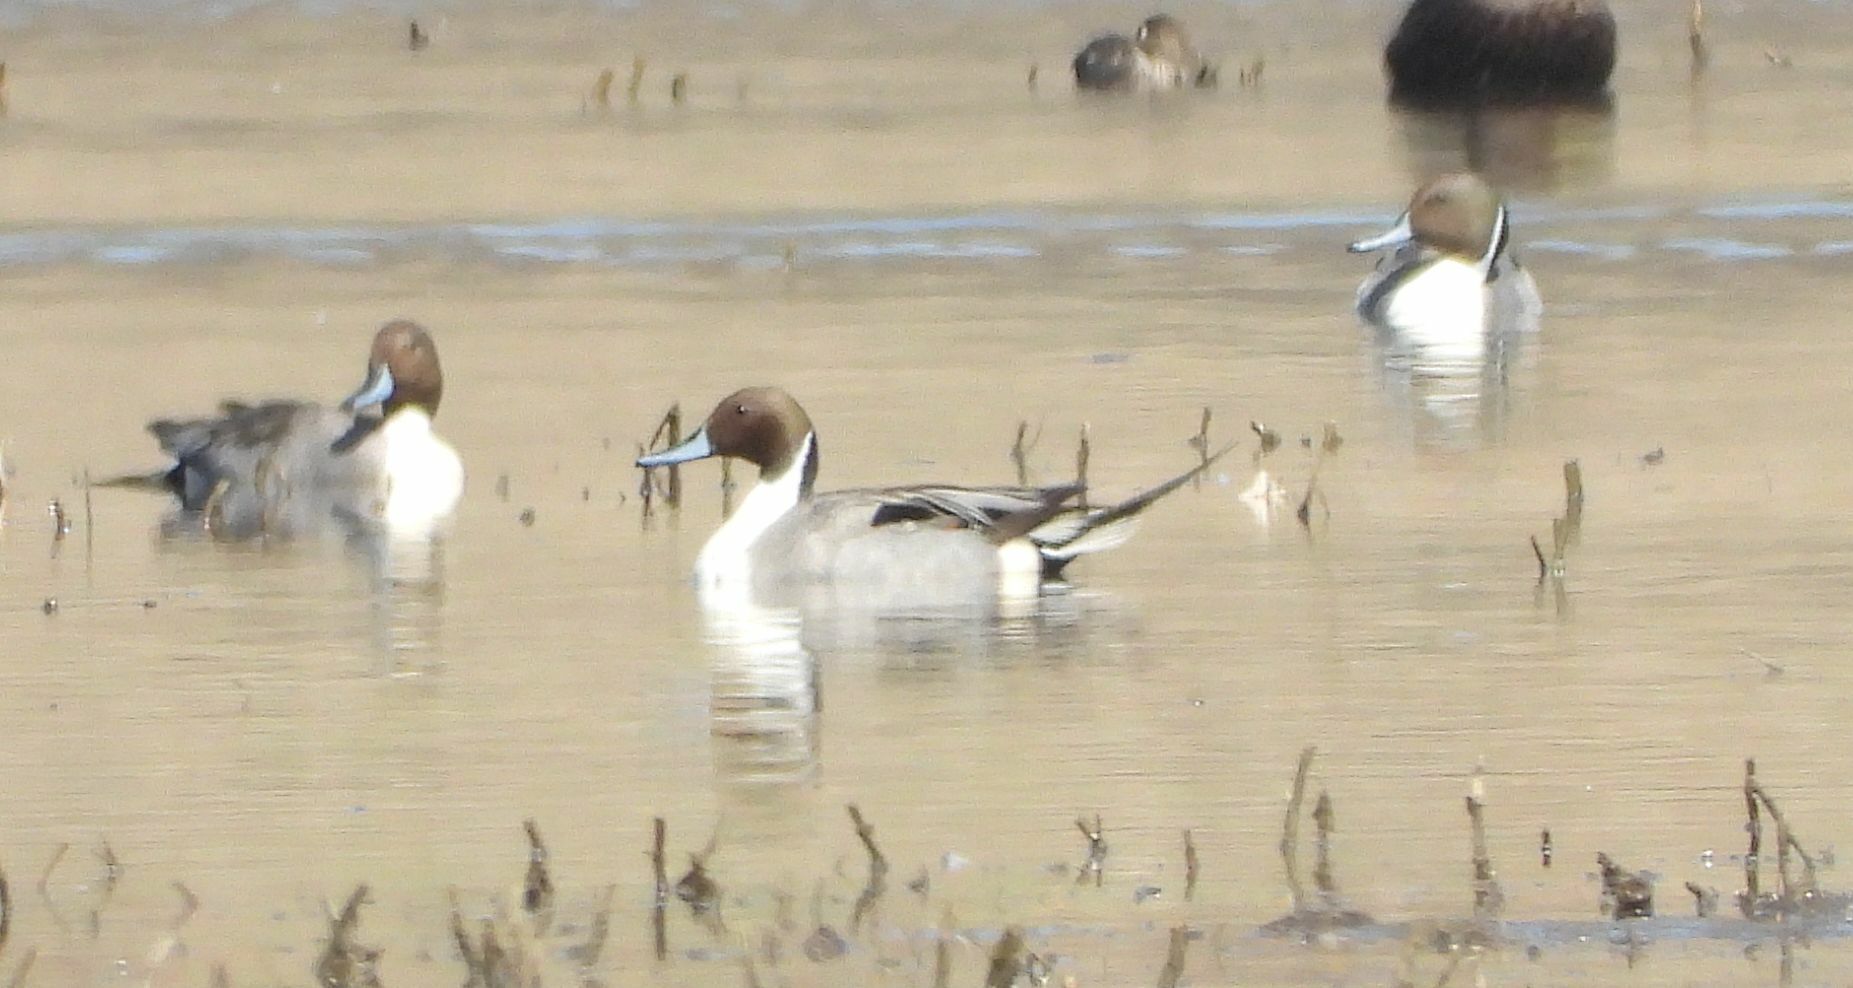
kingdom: Animalia
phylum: Chordata
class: Aves
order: Anseriformes
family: Anatidae
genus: Anas
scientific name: Anas acuta
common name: Northern pintail
